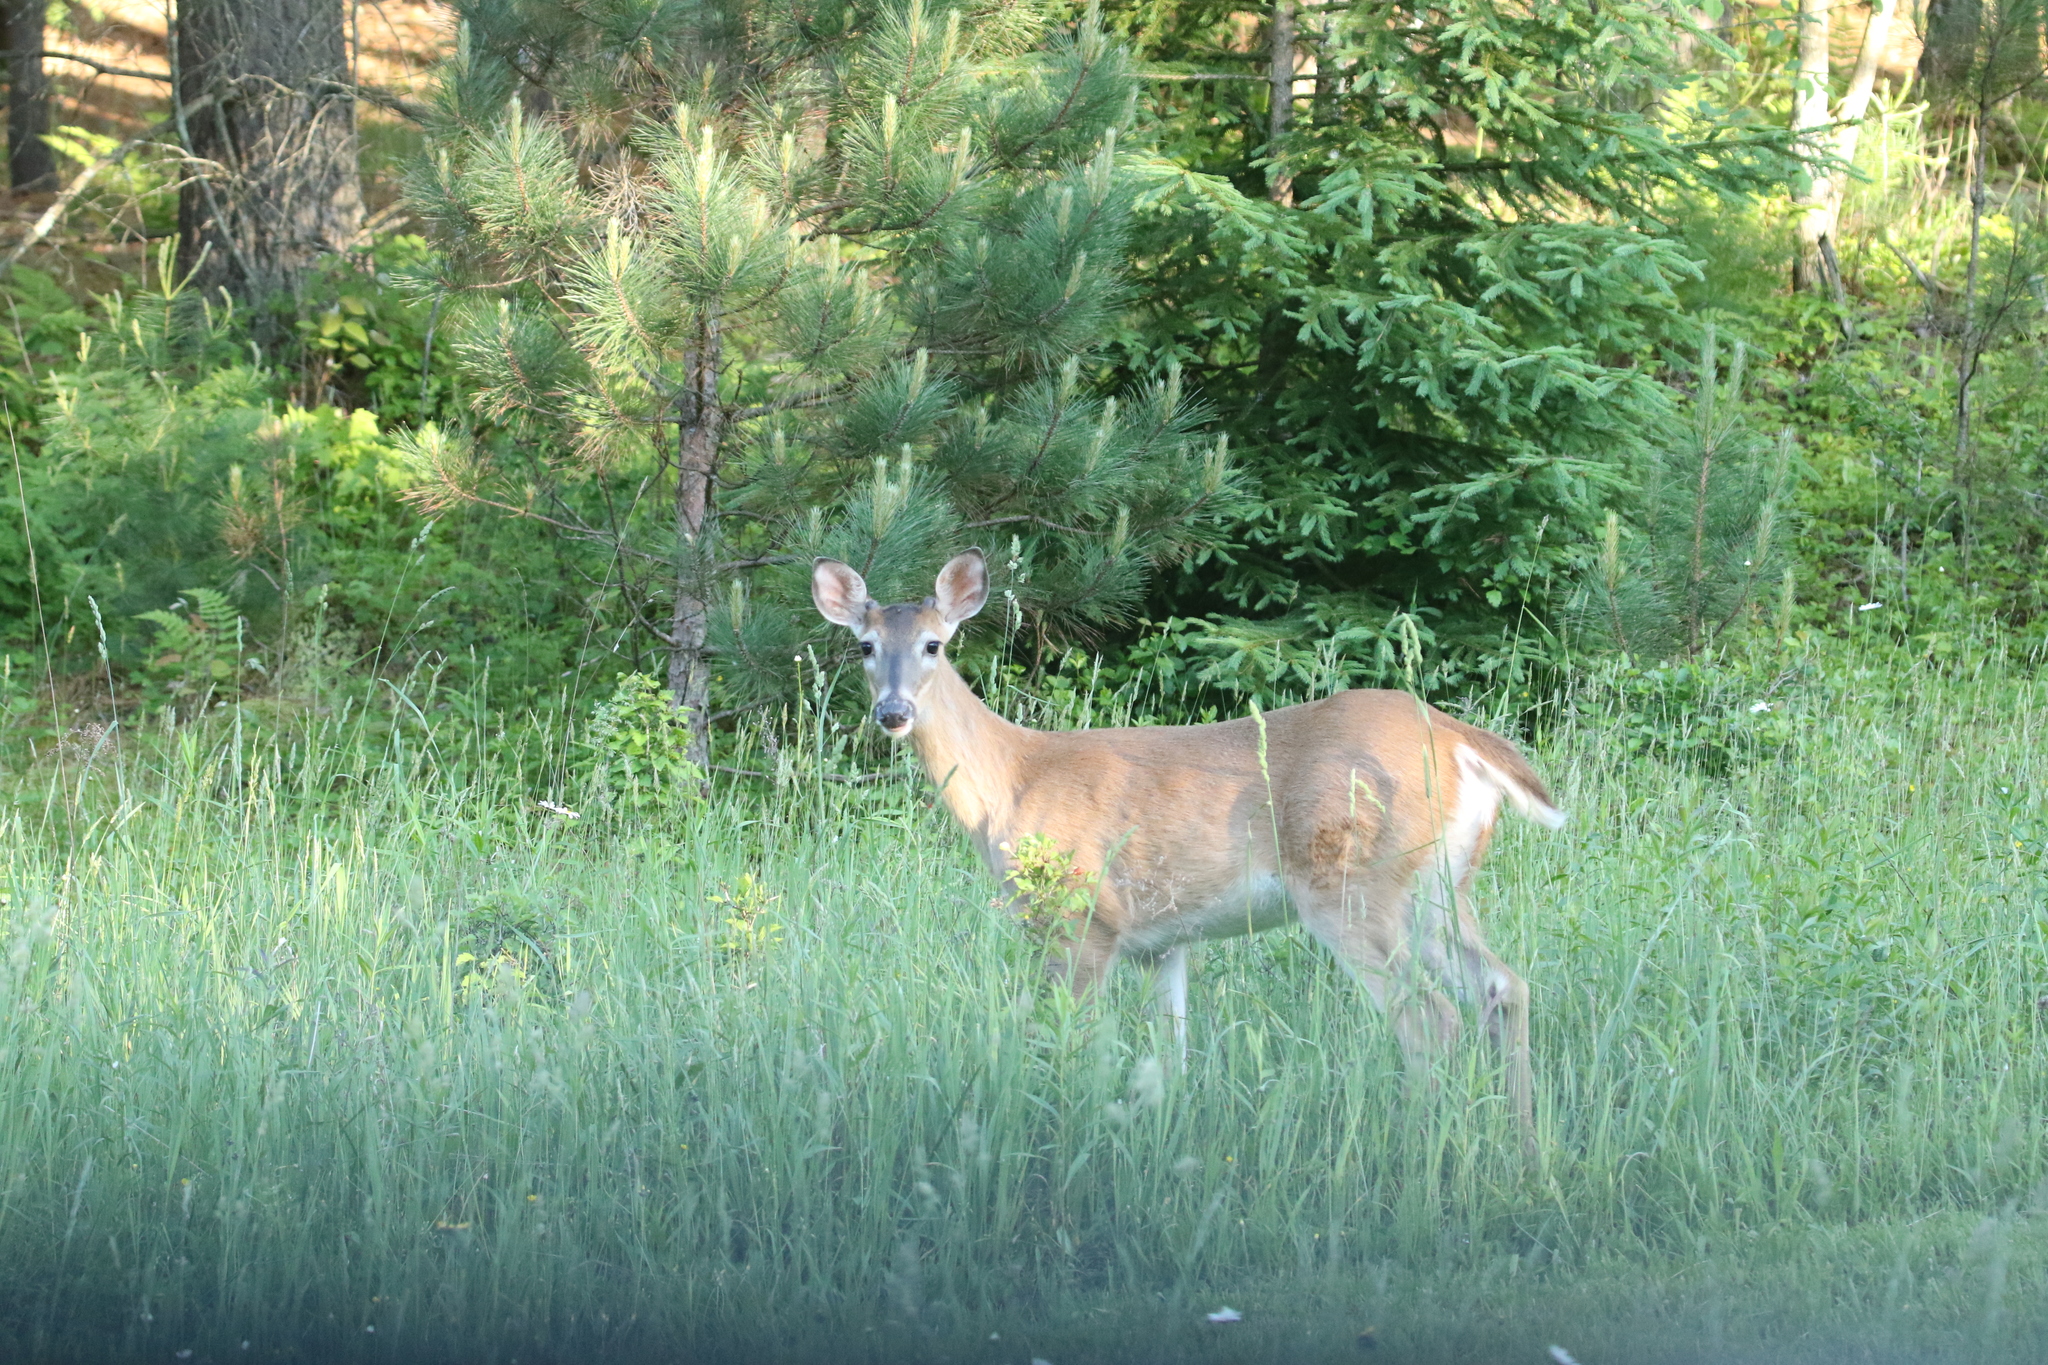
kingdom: Animalia
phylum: Chordata
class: Mammalia
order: Artiodactyla
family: Cervidae
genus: Odocoileus
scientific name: Odocoileus virginianus
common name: White-tailed deer
